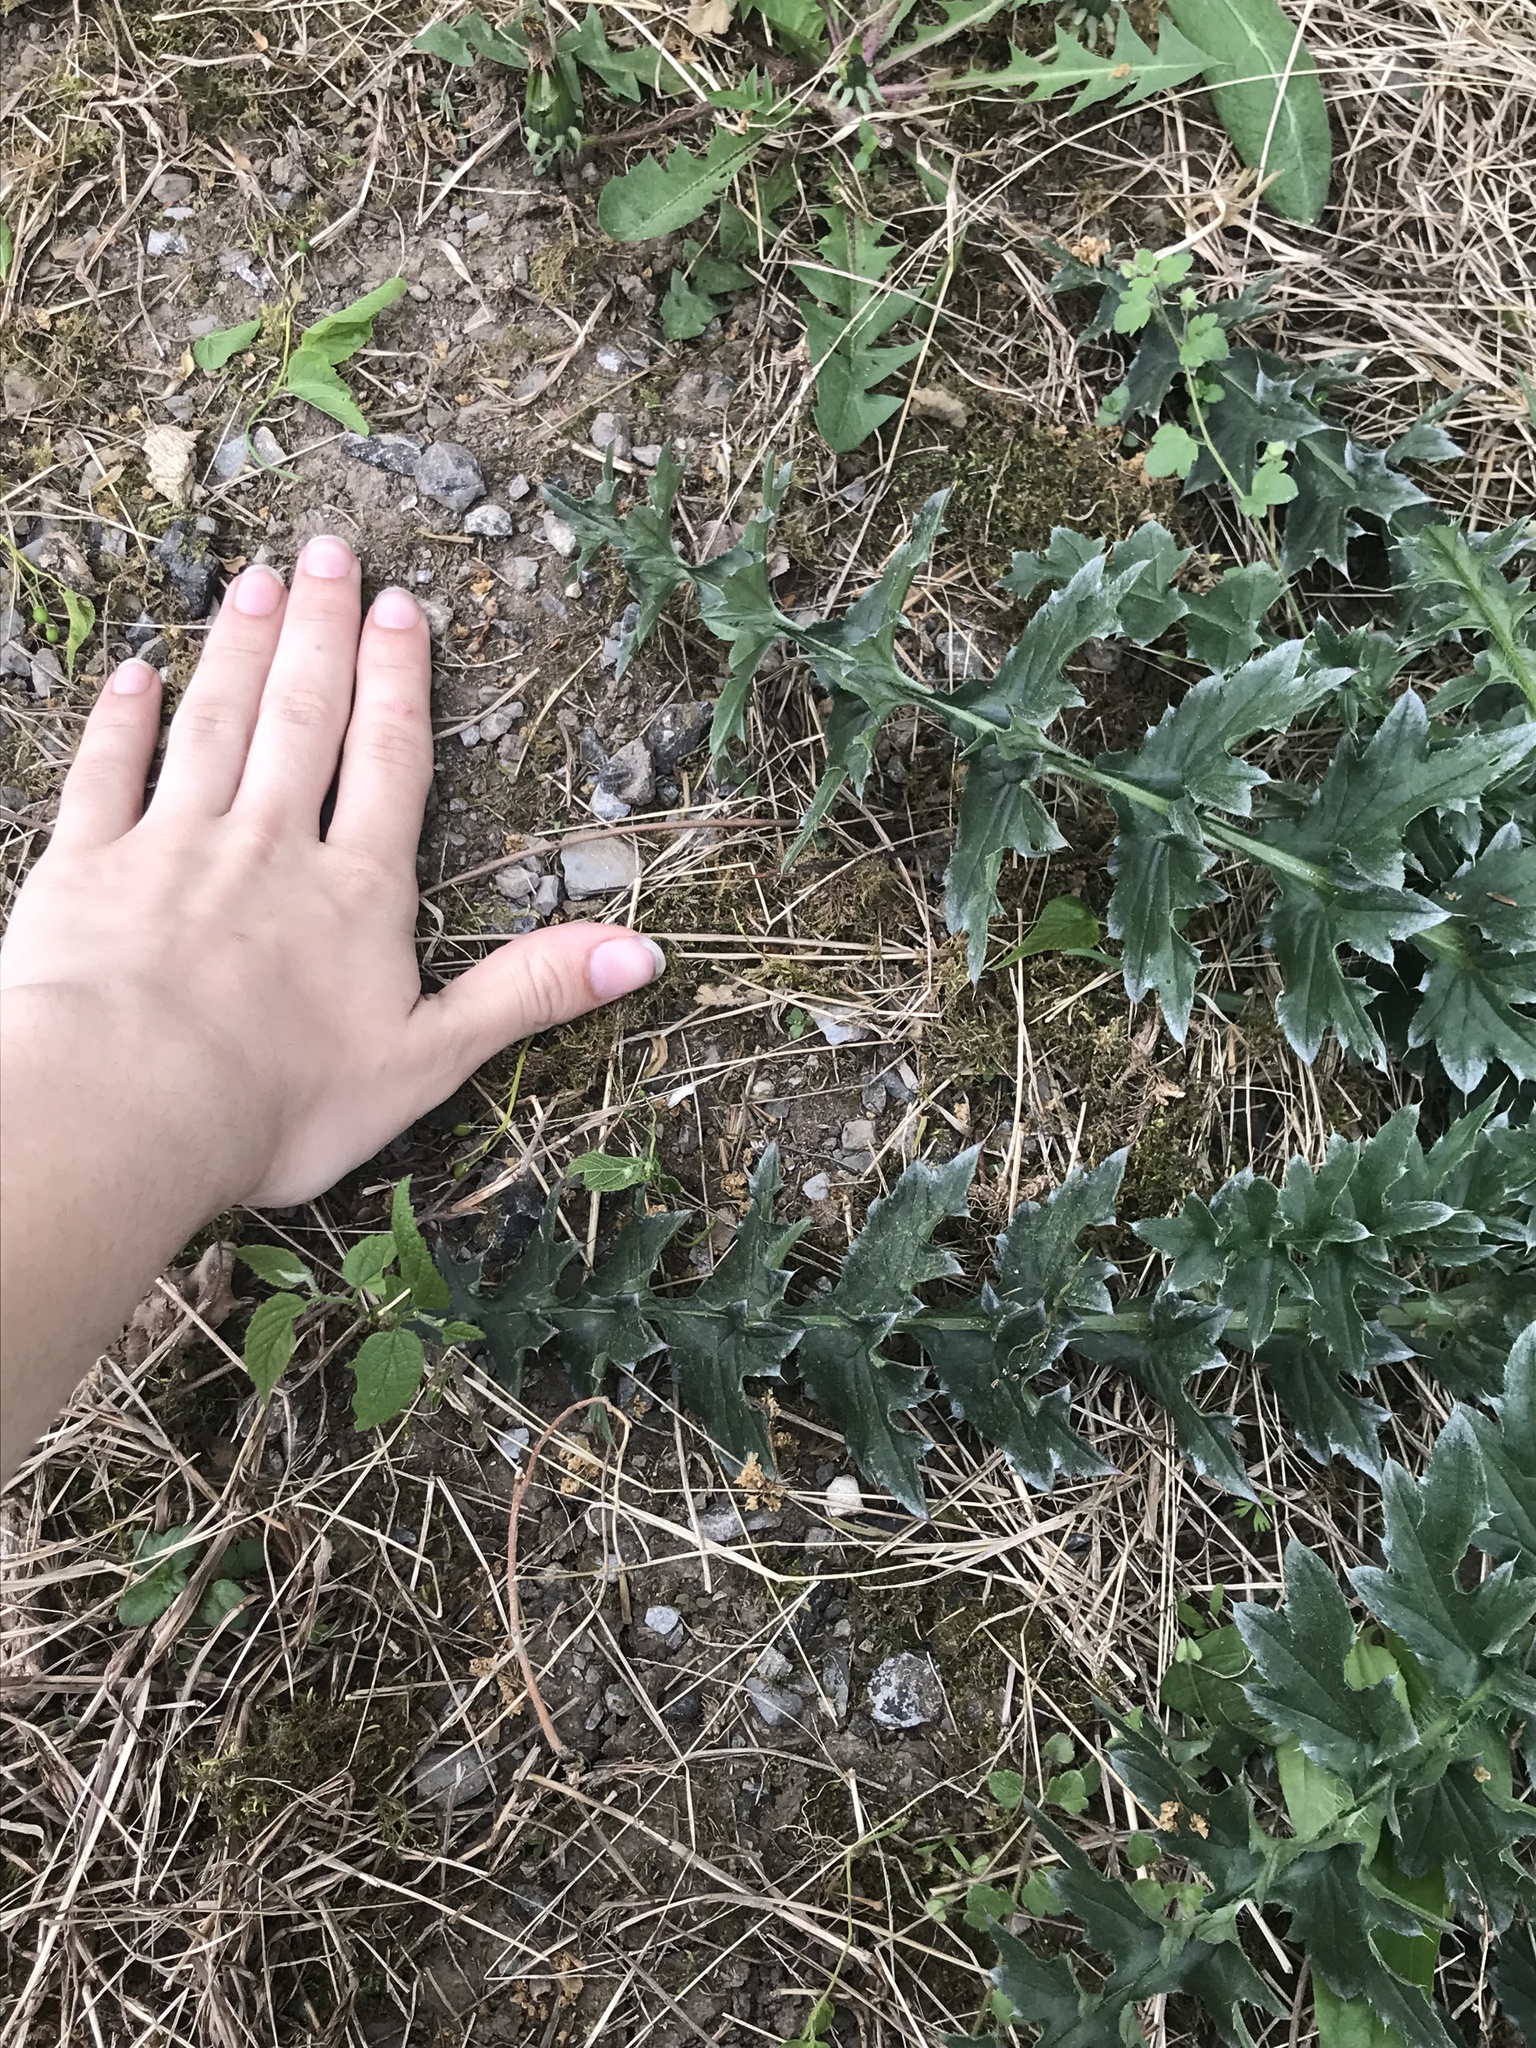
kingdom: Plantae
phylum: Tracheophyta
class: Magnoliopsida
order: Asterales
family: Asteraceae
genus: Carduus
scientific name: Carduus acanthoides
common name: Plumeless thistle
